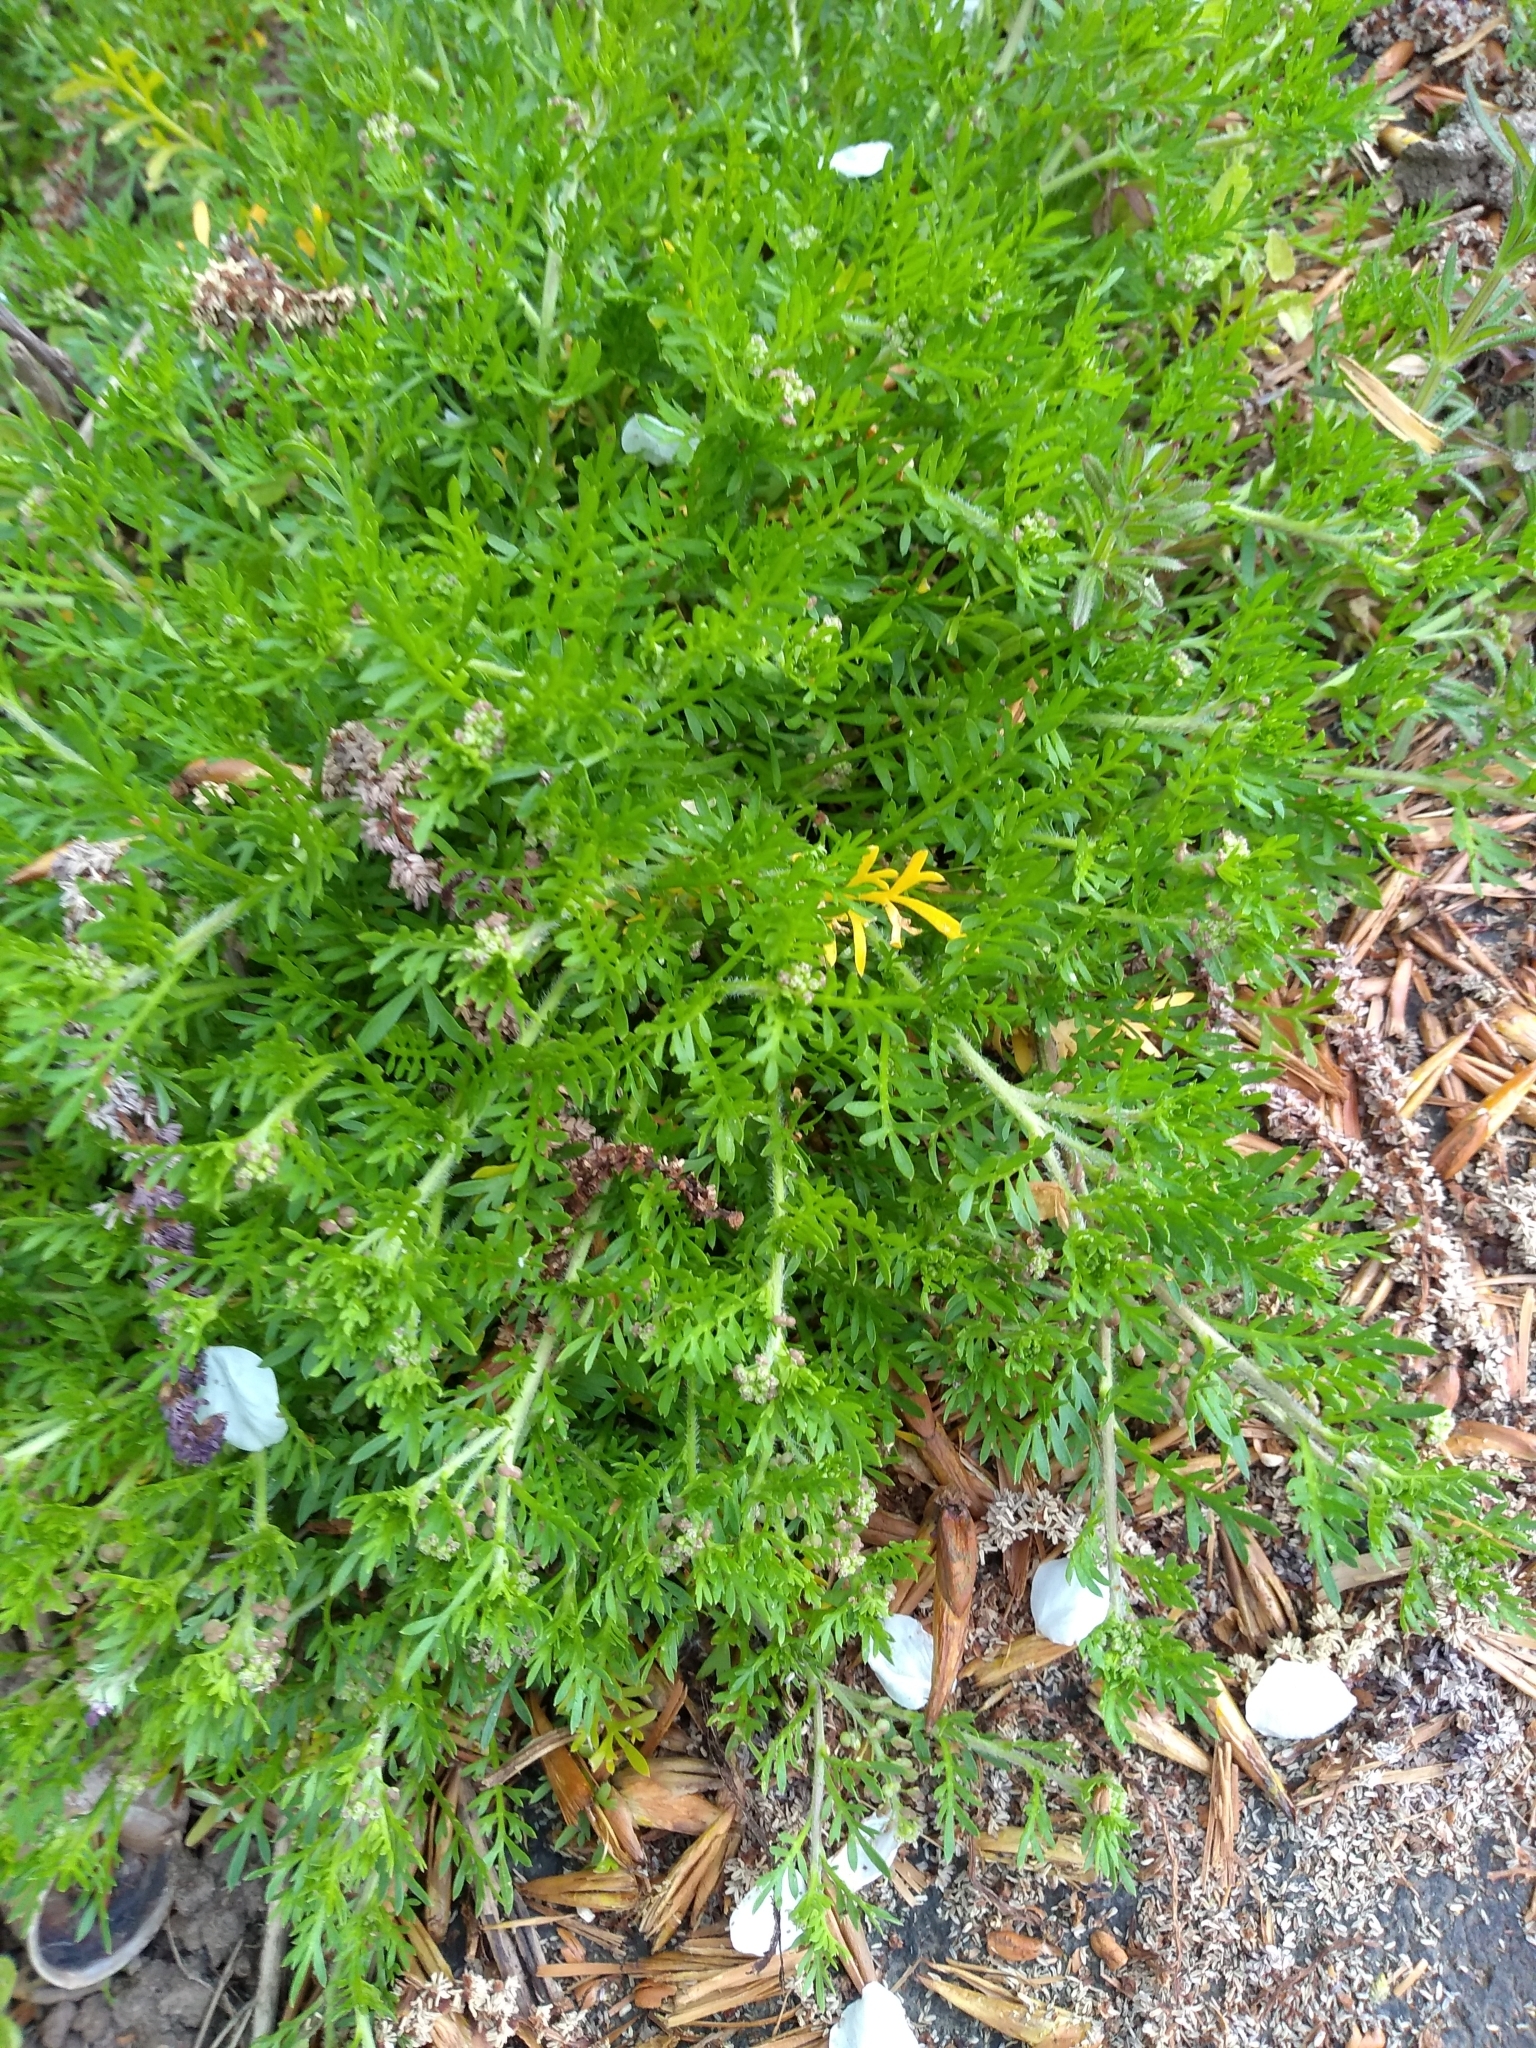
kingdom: Plantae
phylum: Tracheophyta
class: Magnoliopsida
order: Brassicales
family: Brassicaceae
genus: Lepidium
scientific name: Lepidium didymum
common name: Lesser swinecress
